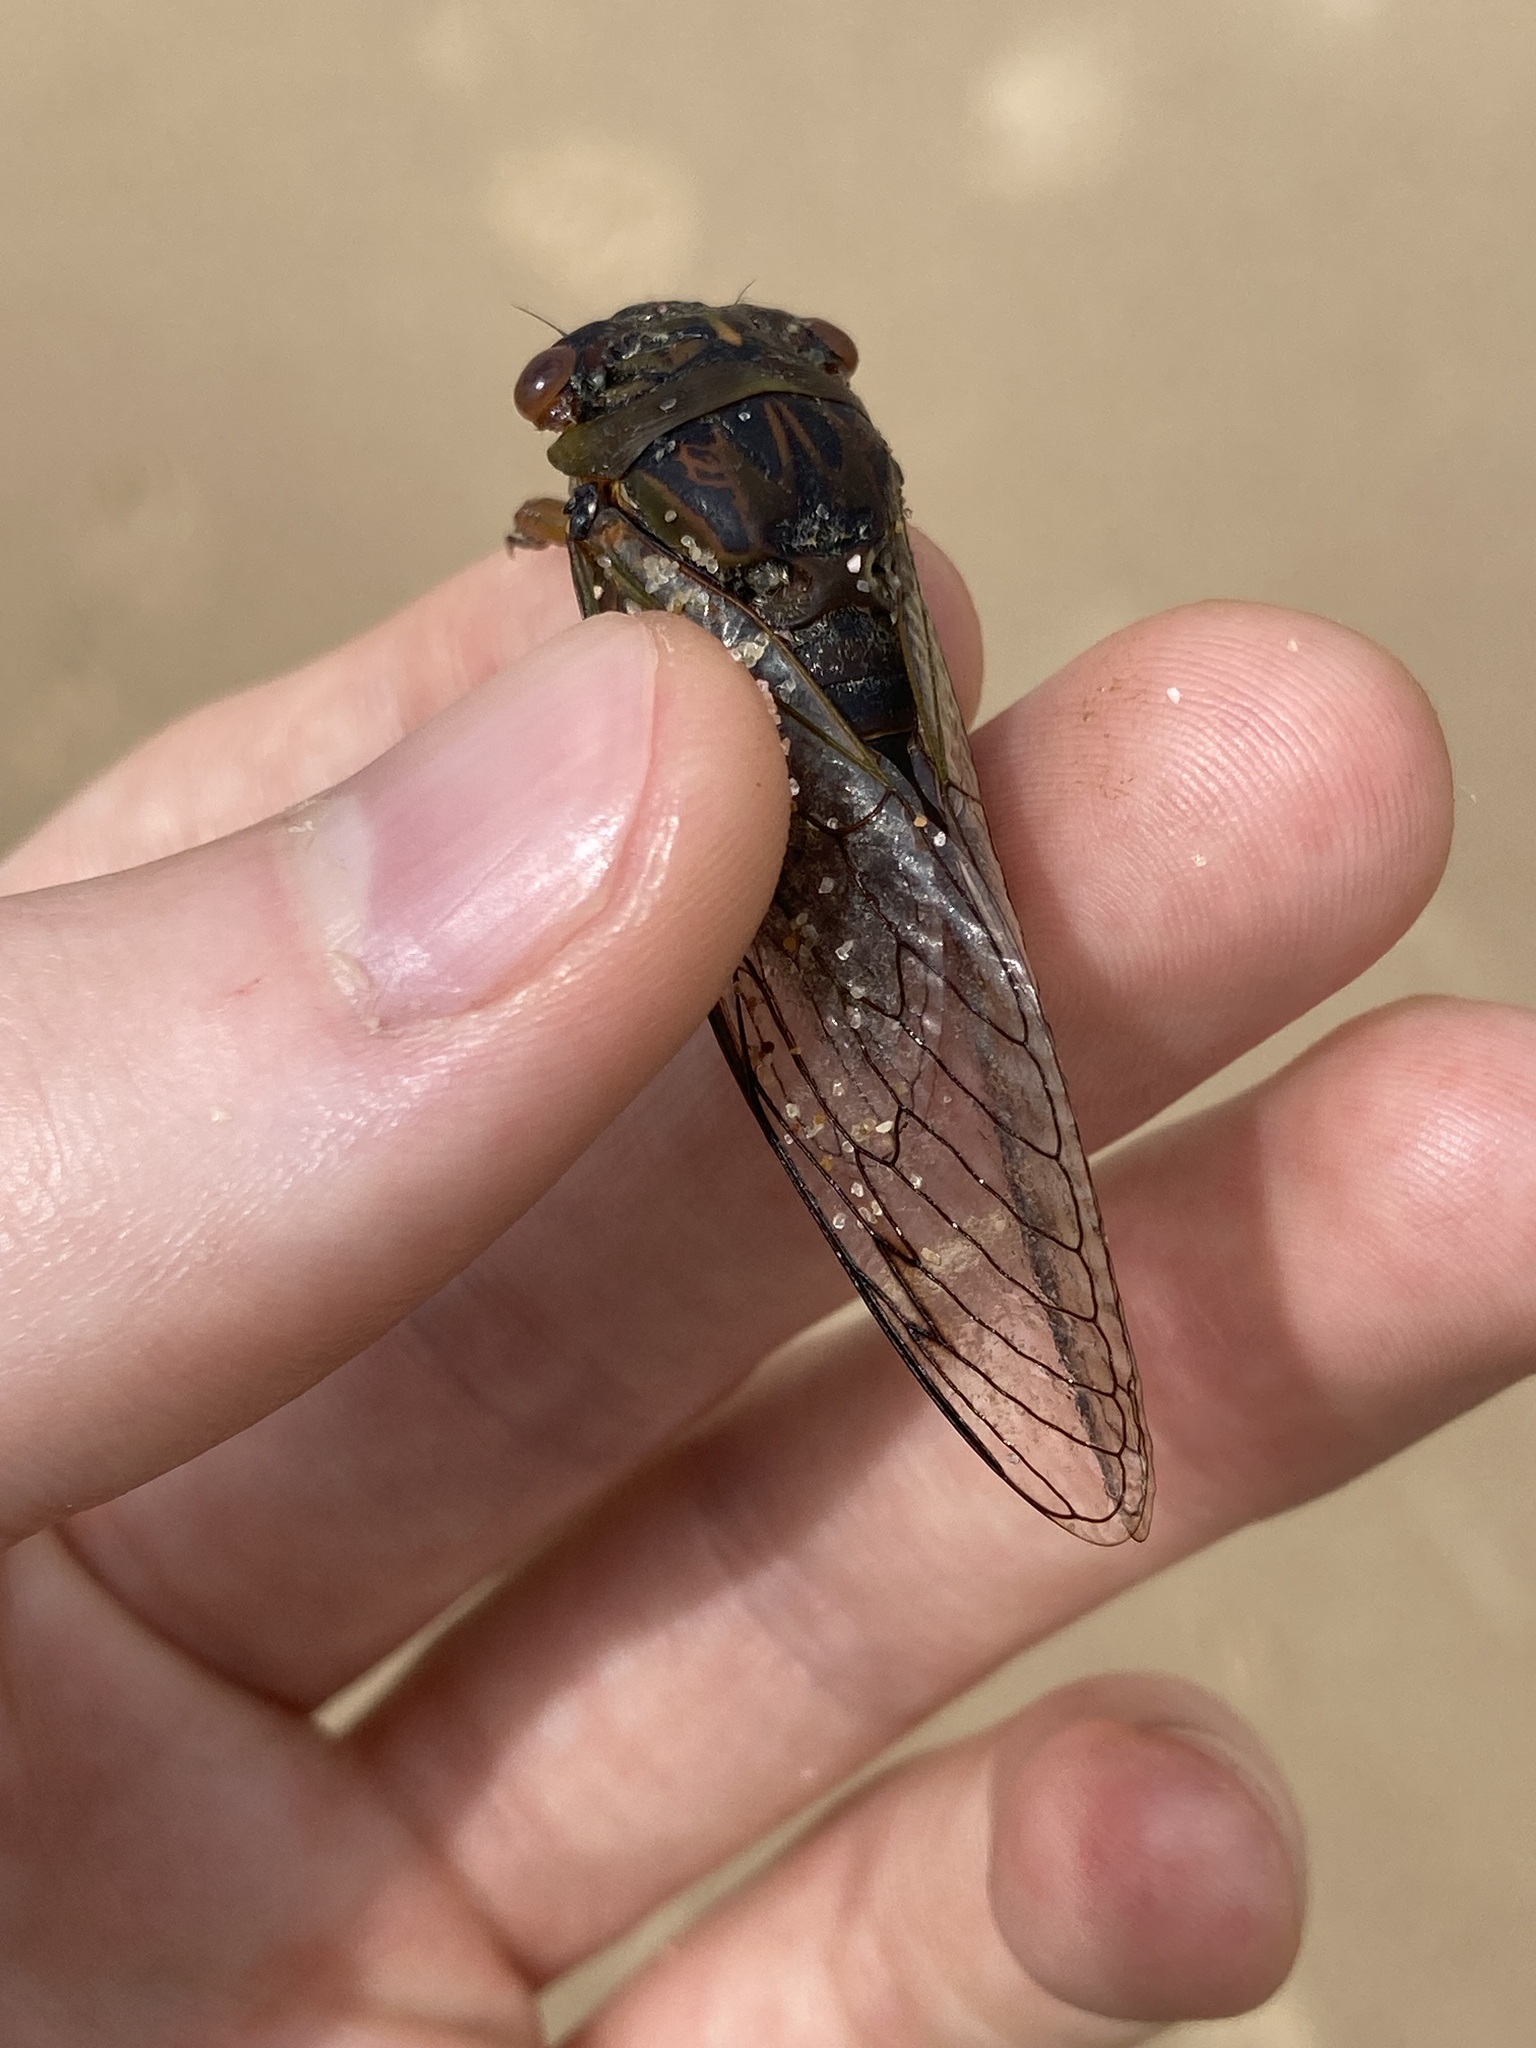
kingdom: Animalia
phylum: Arthropoda
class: Insecta
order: Hemiptera
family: Cicadidae
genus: Psaltoda
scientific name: Psaltoda plaga
